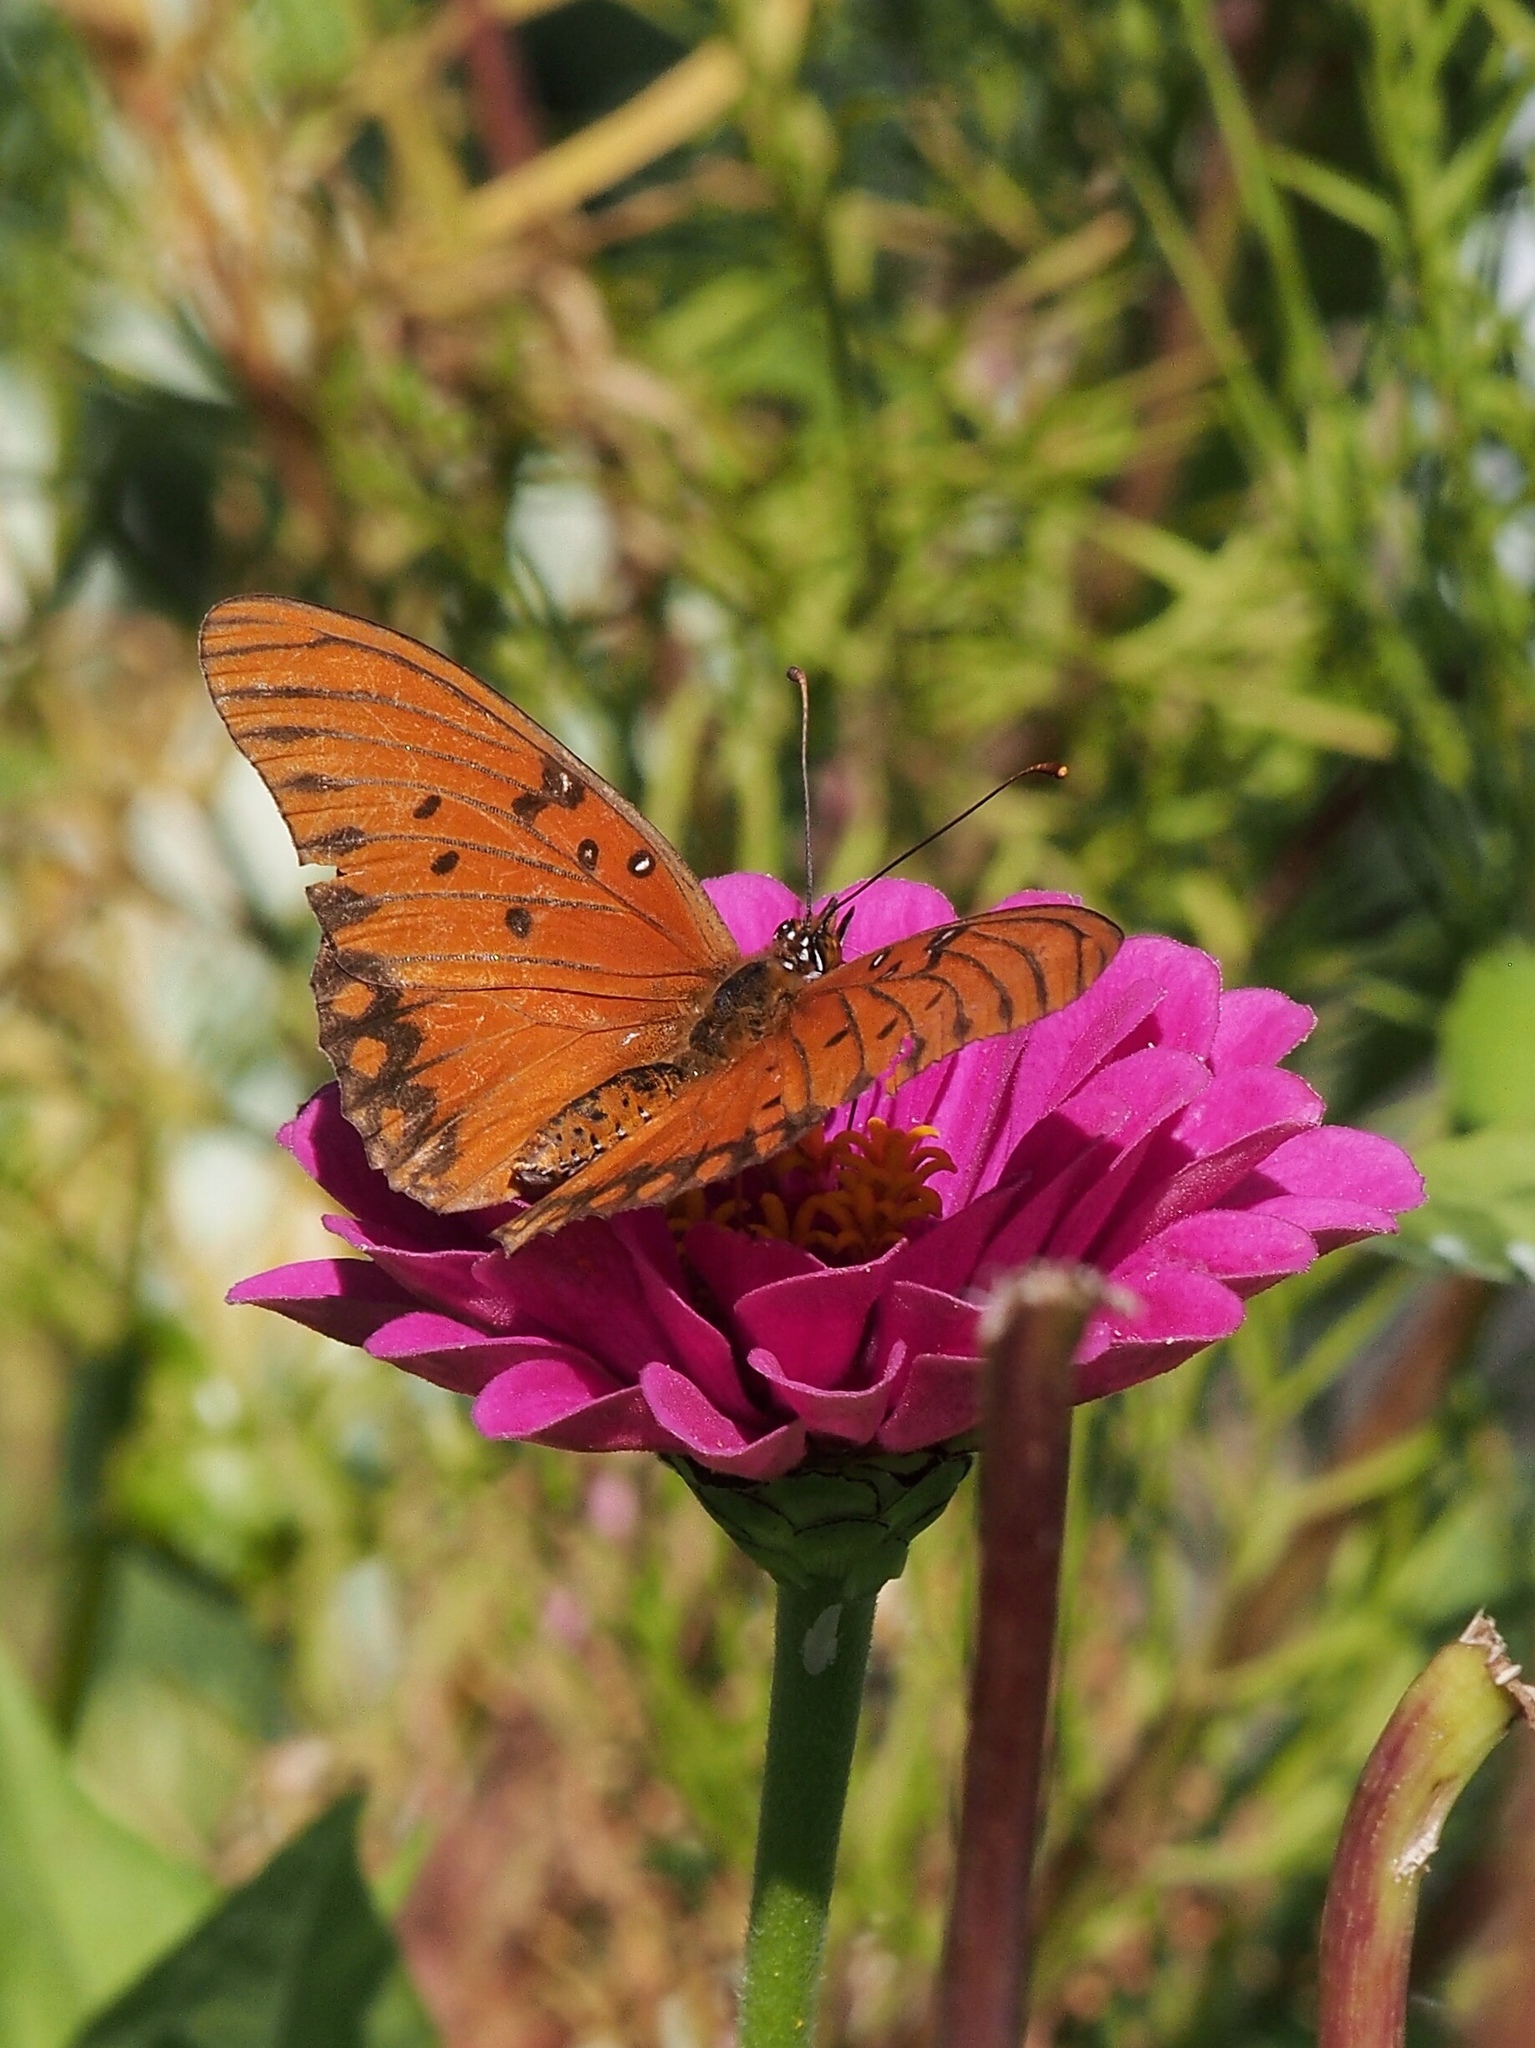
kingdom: Animalia
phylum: Arthropoda
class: Insecta
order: Lepidoptera
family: Nymphalidae
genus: Dione
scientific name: Dione vanillae
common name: Gulf fritillary
